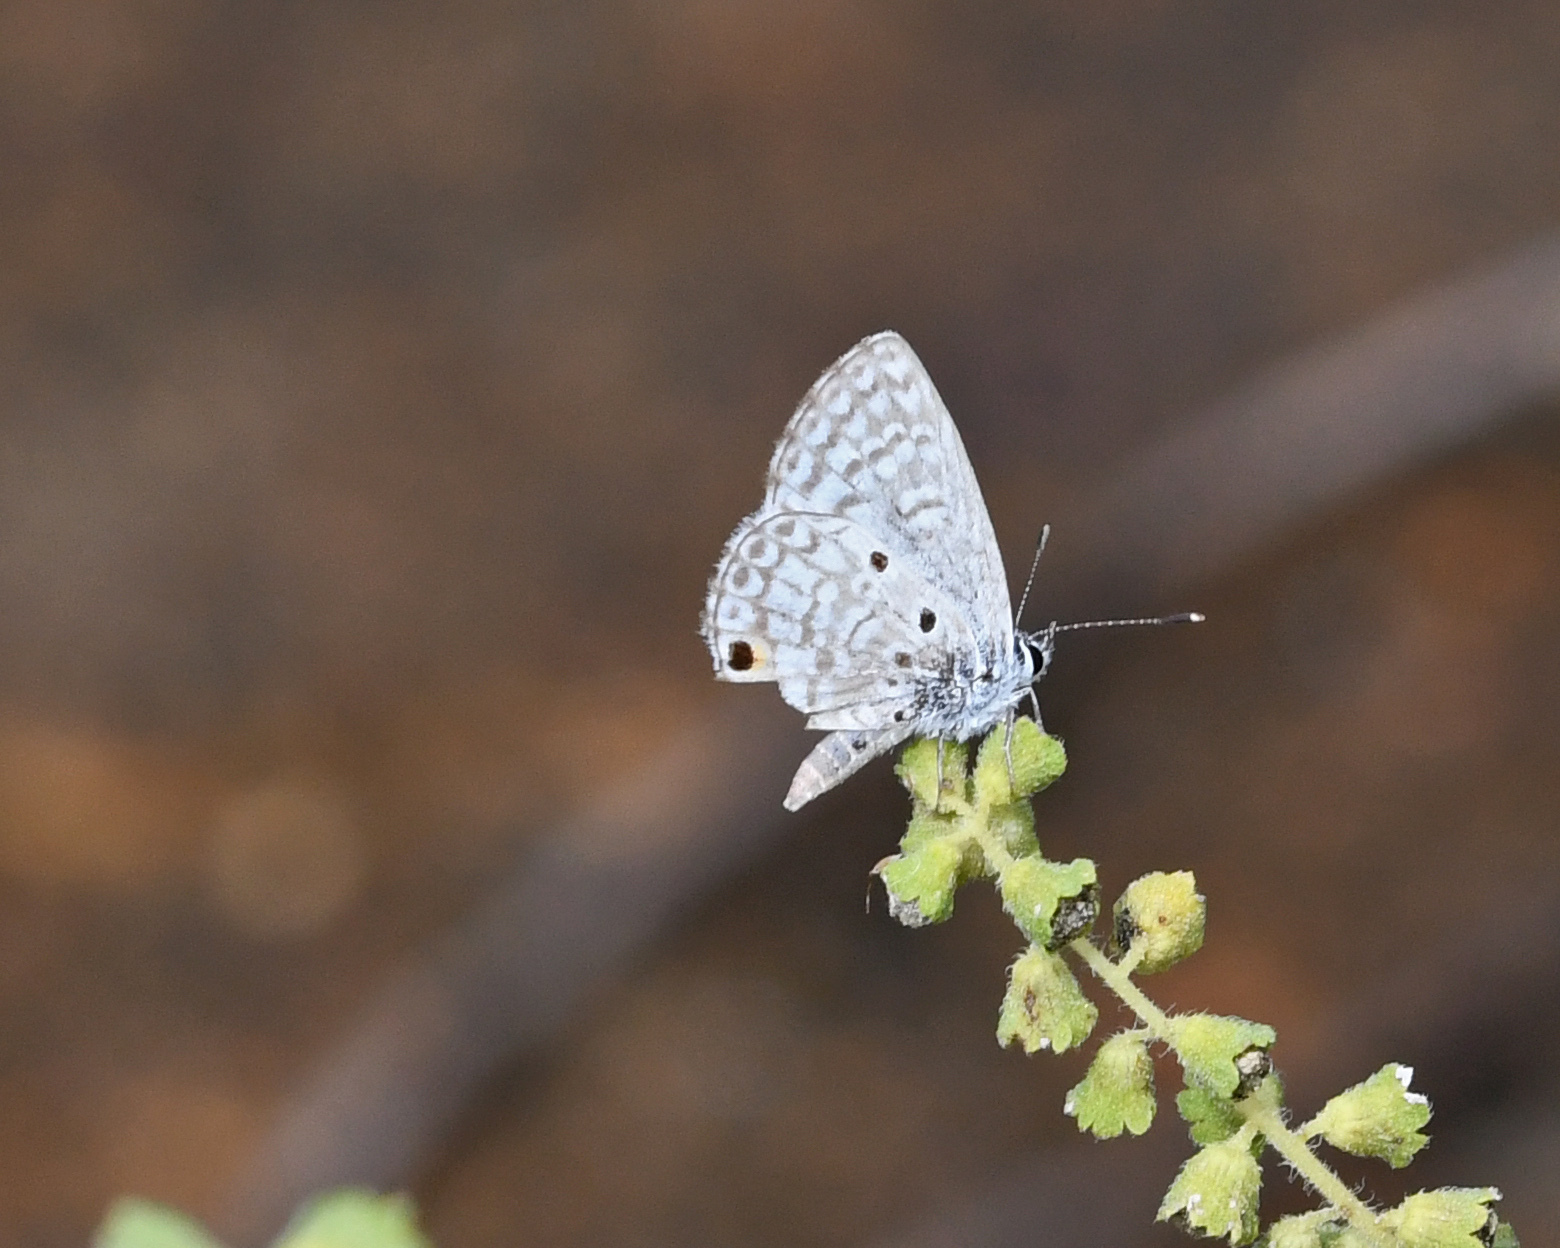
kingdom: Animalia
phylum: Arthropoda
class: Insecta
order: Lepidoptera
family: Lycaenidae
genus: Cyclargus
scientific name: Cyclargus thomasi
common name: Miami blue
